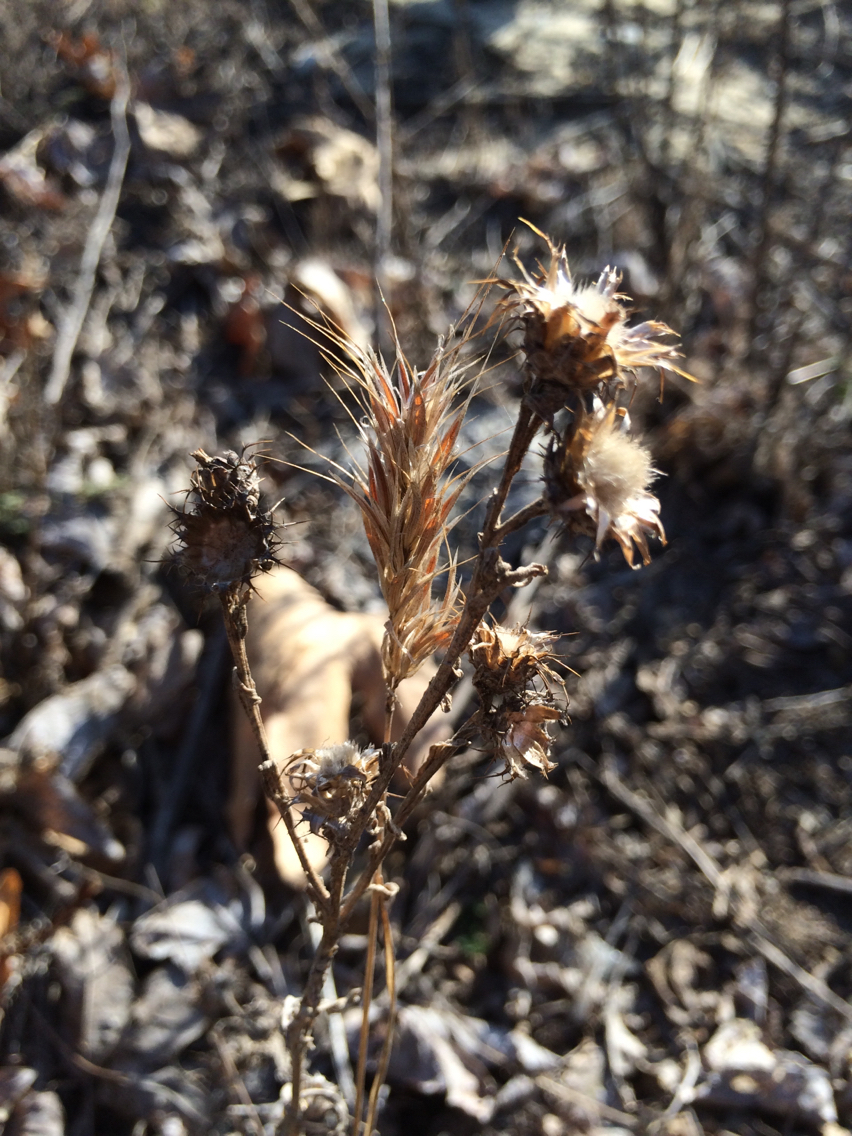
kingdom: Plantae
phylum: Tracheophyta
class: Magnoliopsida
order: Asterales
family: Asteraceae
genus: Centaurea
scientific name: Centaurea melitensis
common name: Maltese star-thistle
